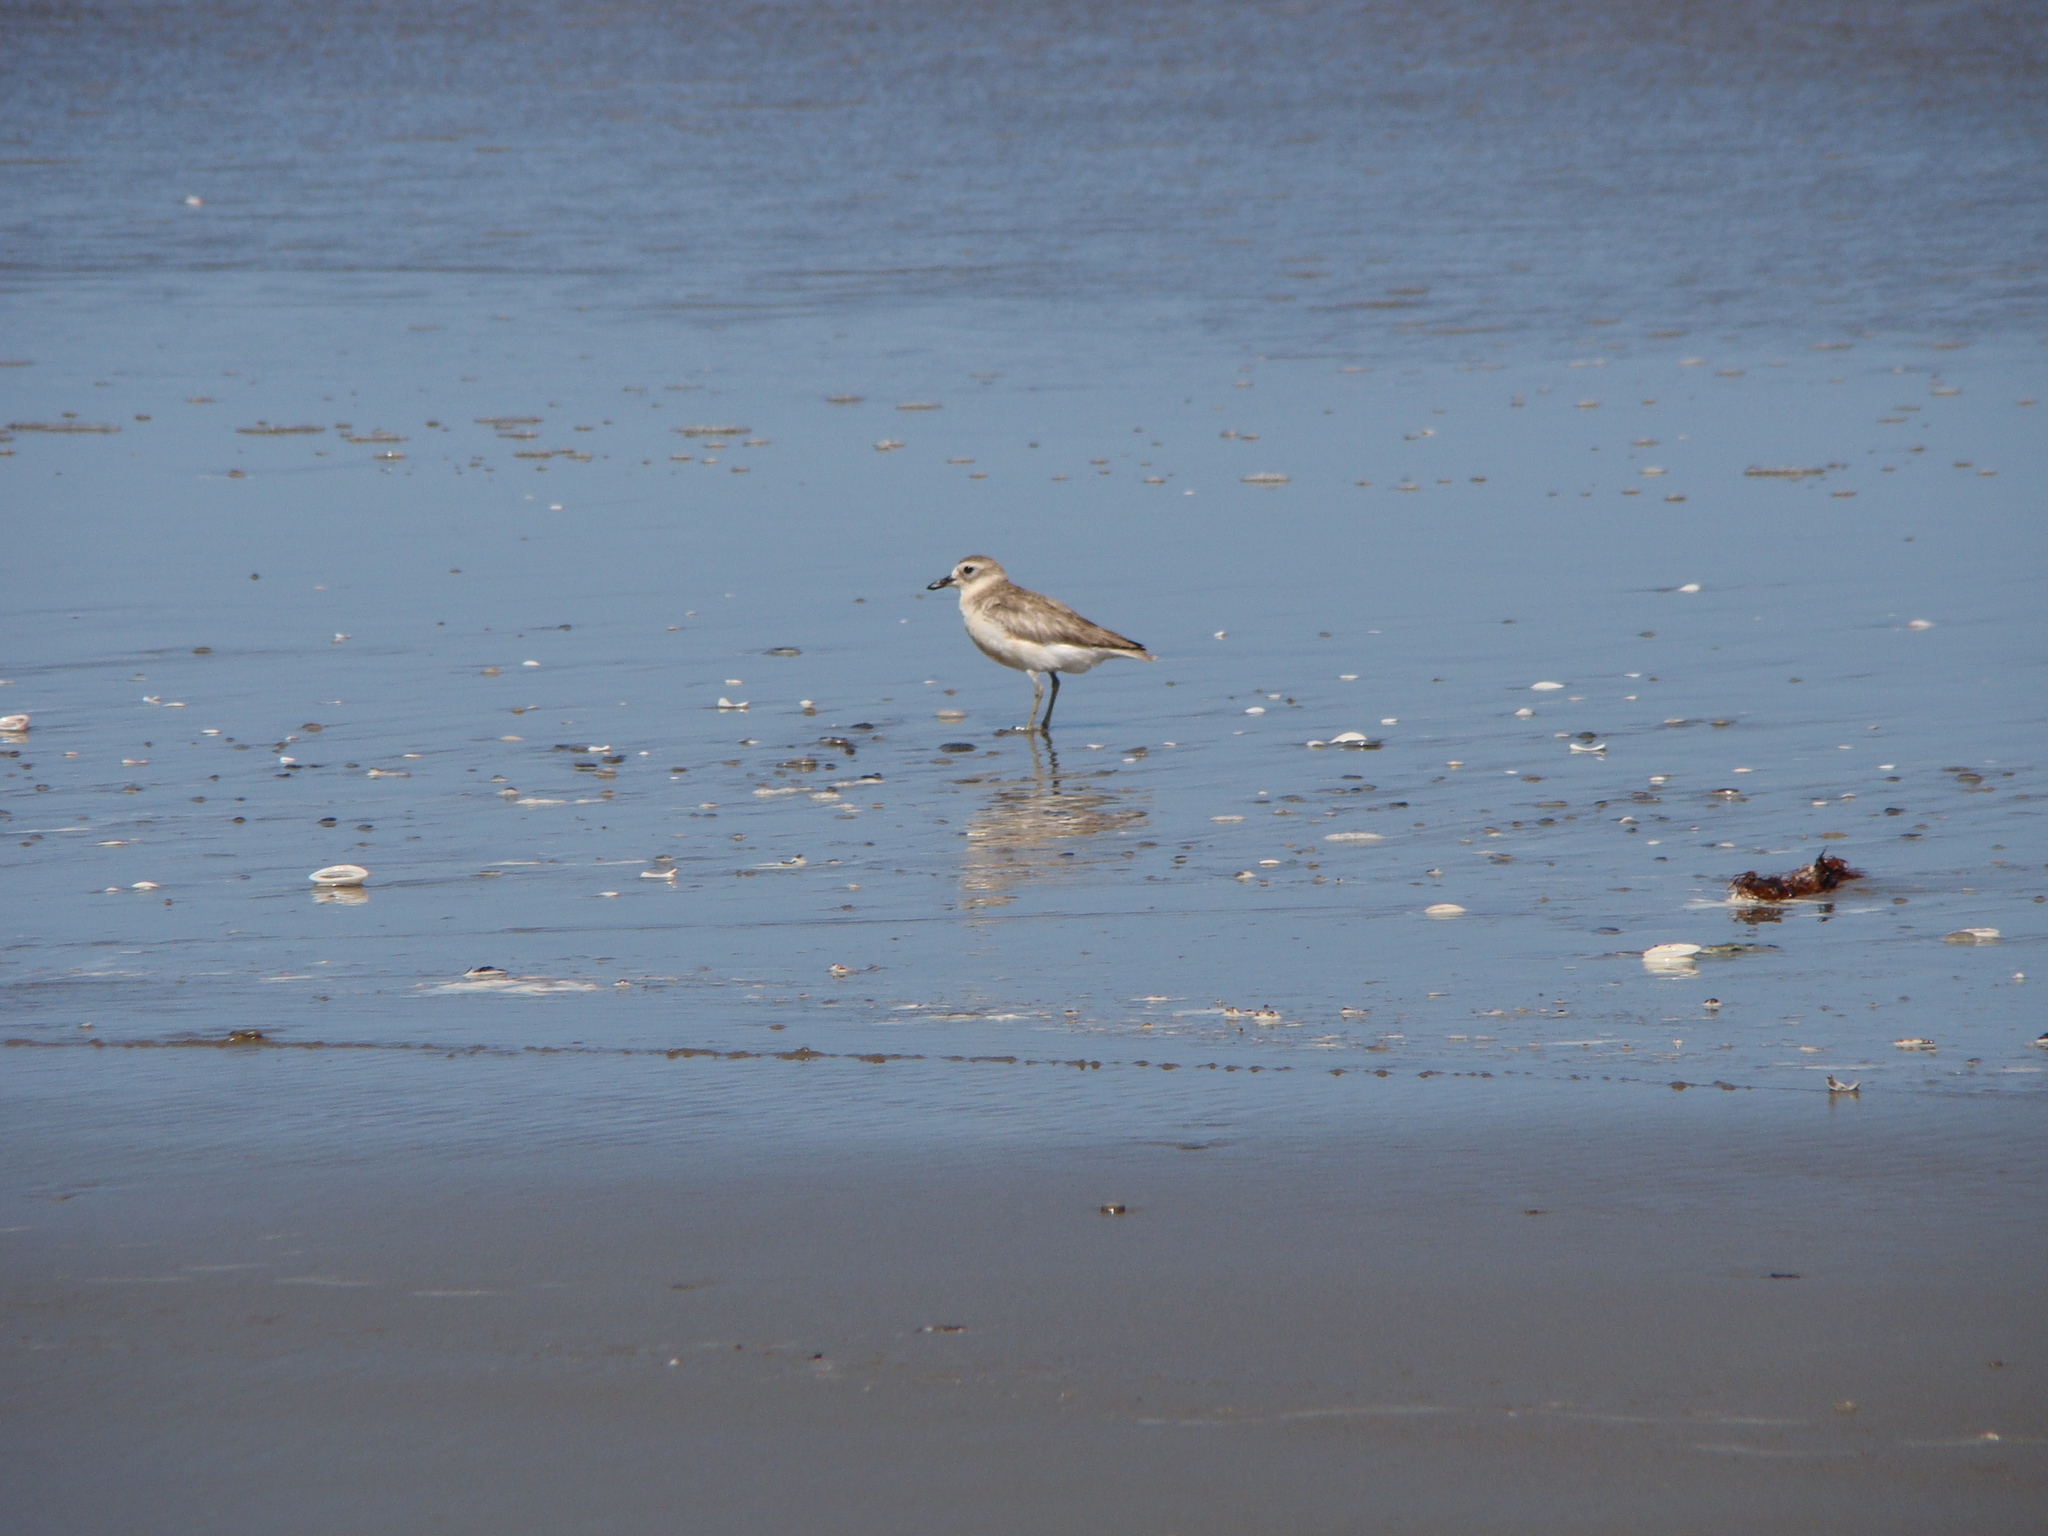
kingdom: Animalia
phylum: Chordata
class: Aves
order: Charadriiformes
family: Charadriidae
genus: Anarhynchus
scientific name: Anarhynchus
